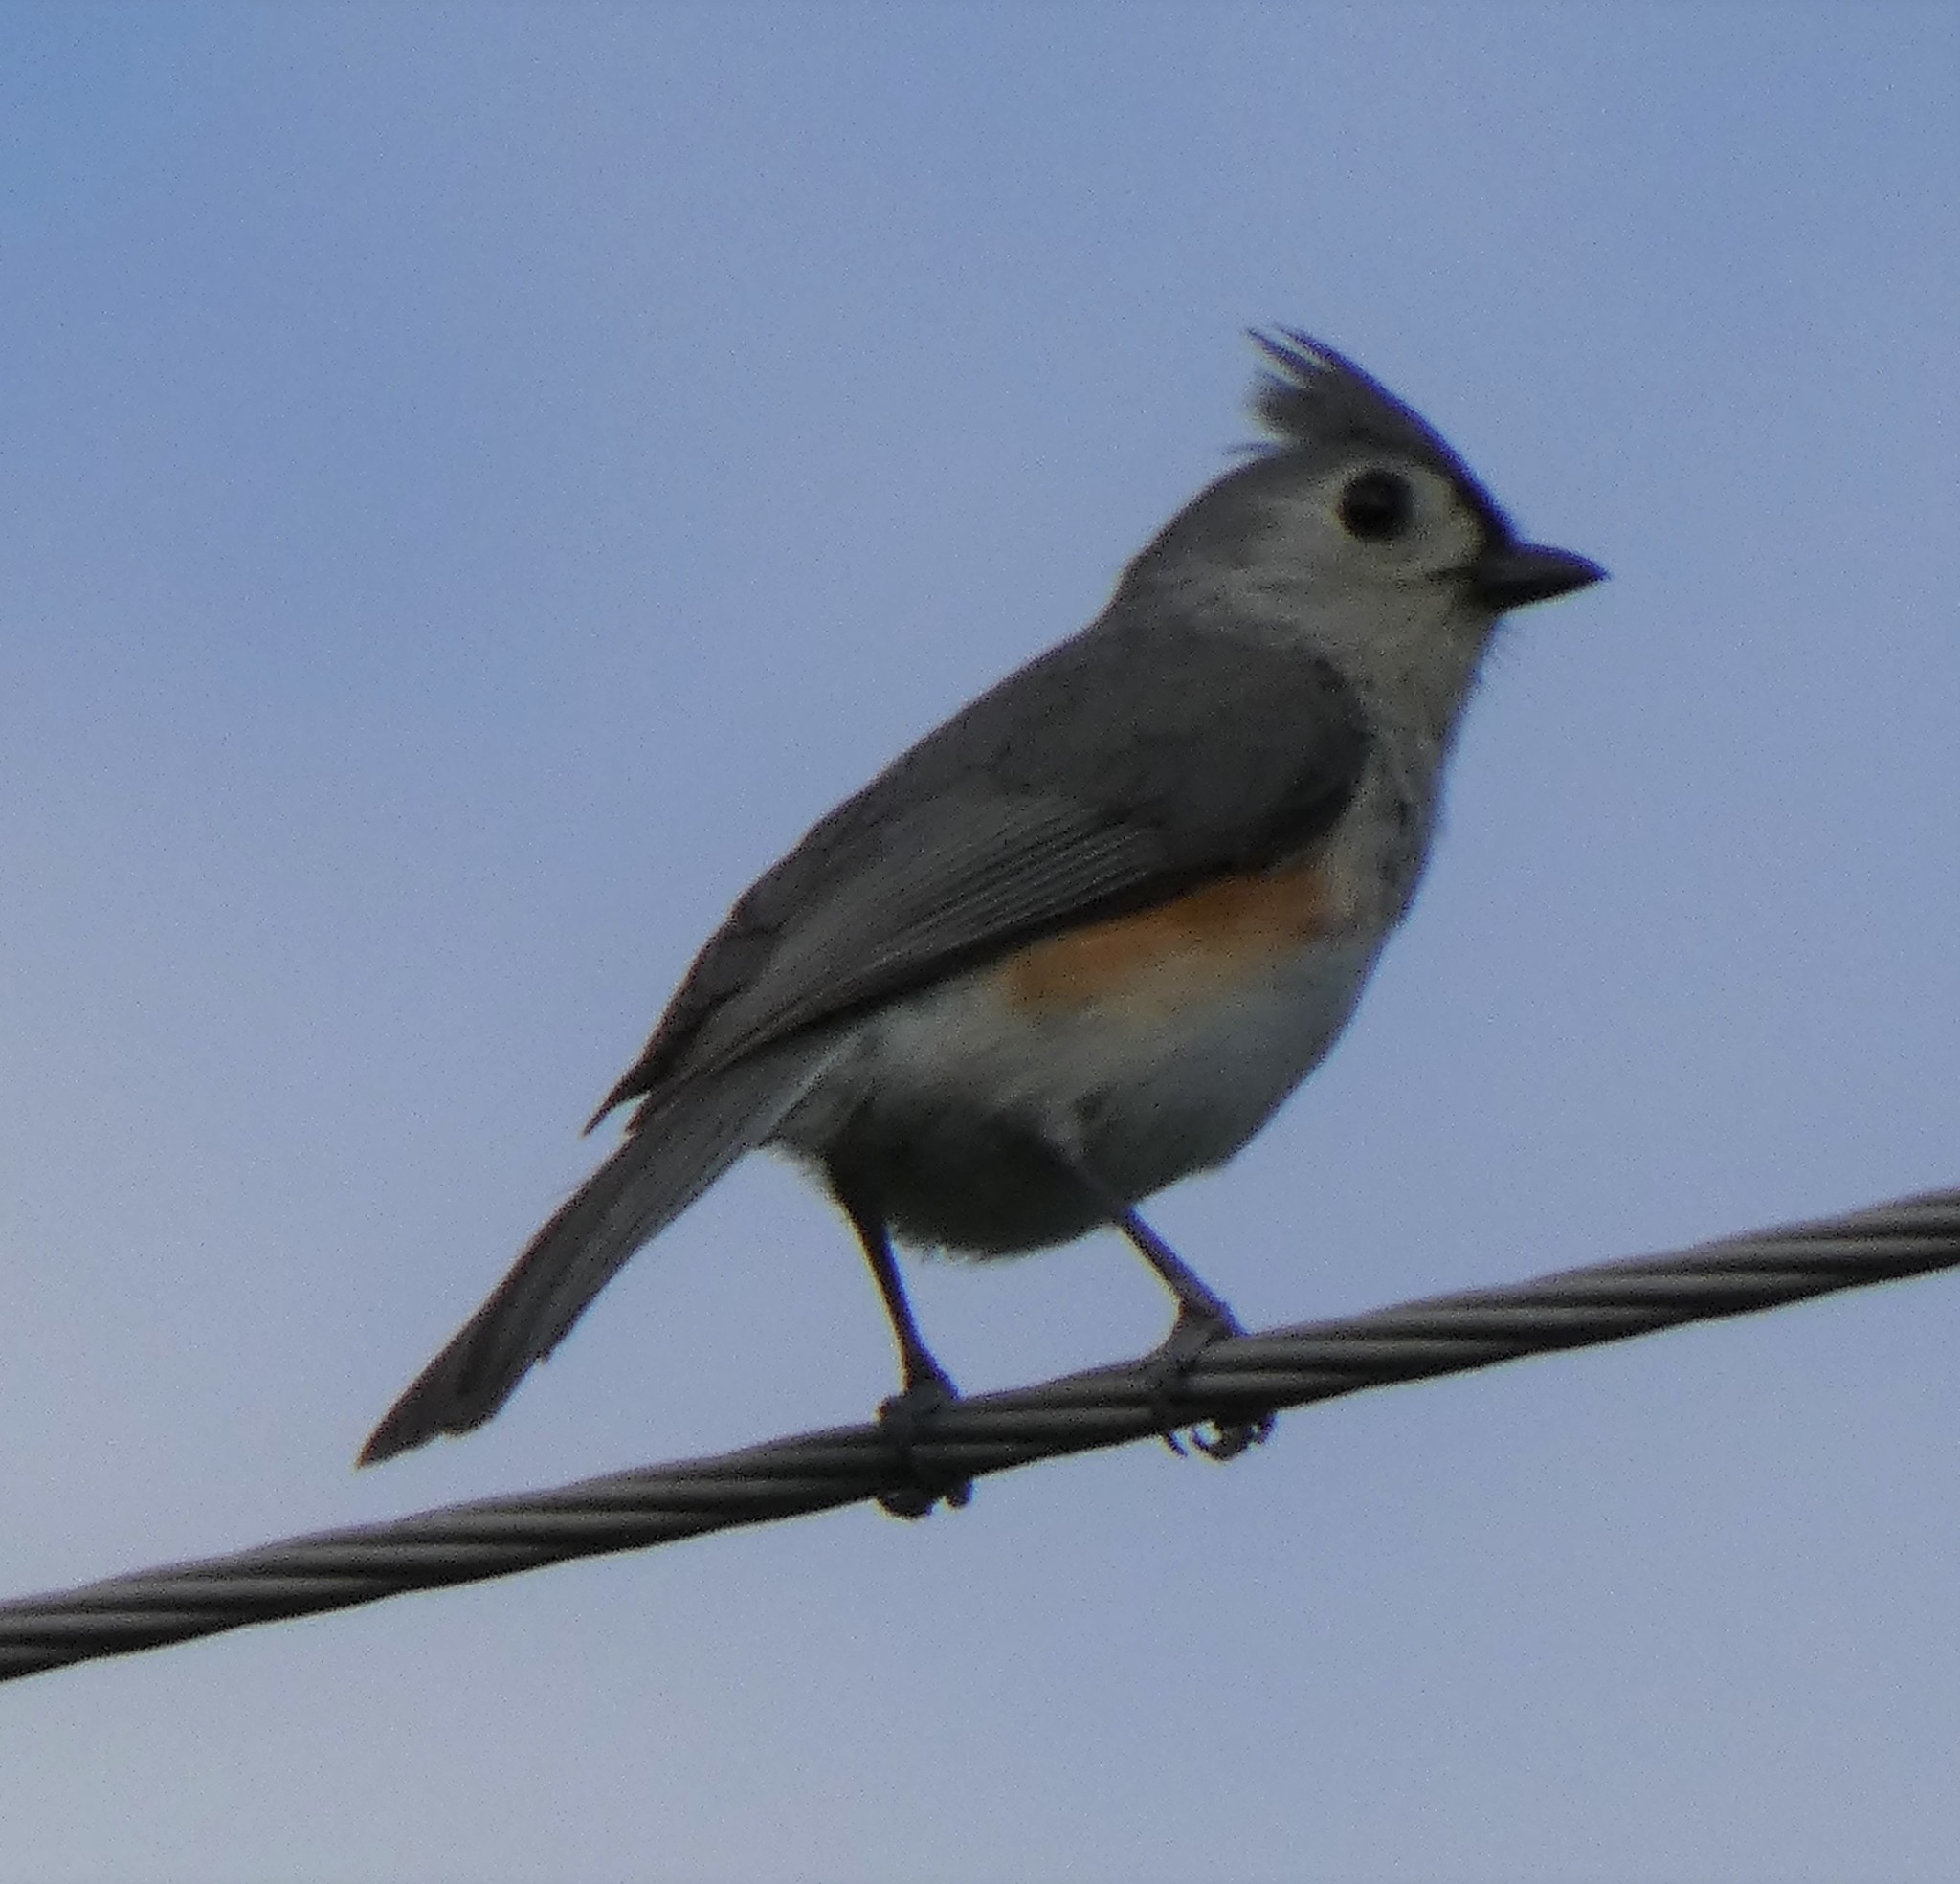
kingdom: Animalia
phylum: Chordata
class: Aves
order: Passeriformes
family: Paridae
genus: Baeolophus
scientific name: Baeolophus bicolor
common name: Tufted titmouse
